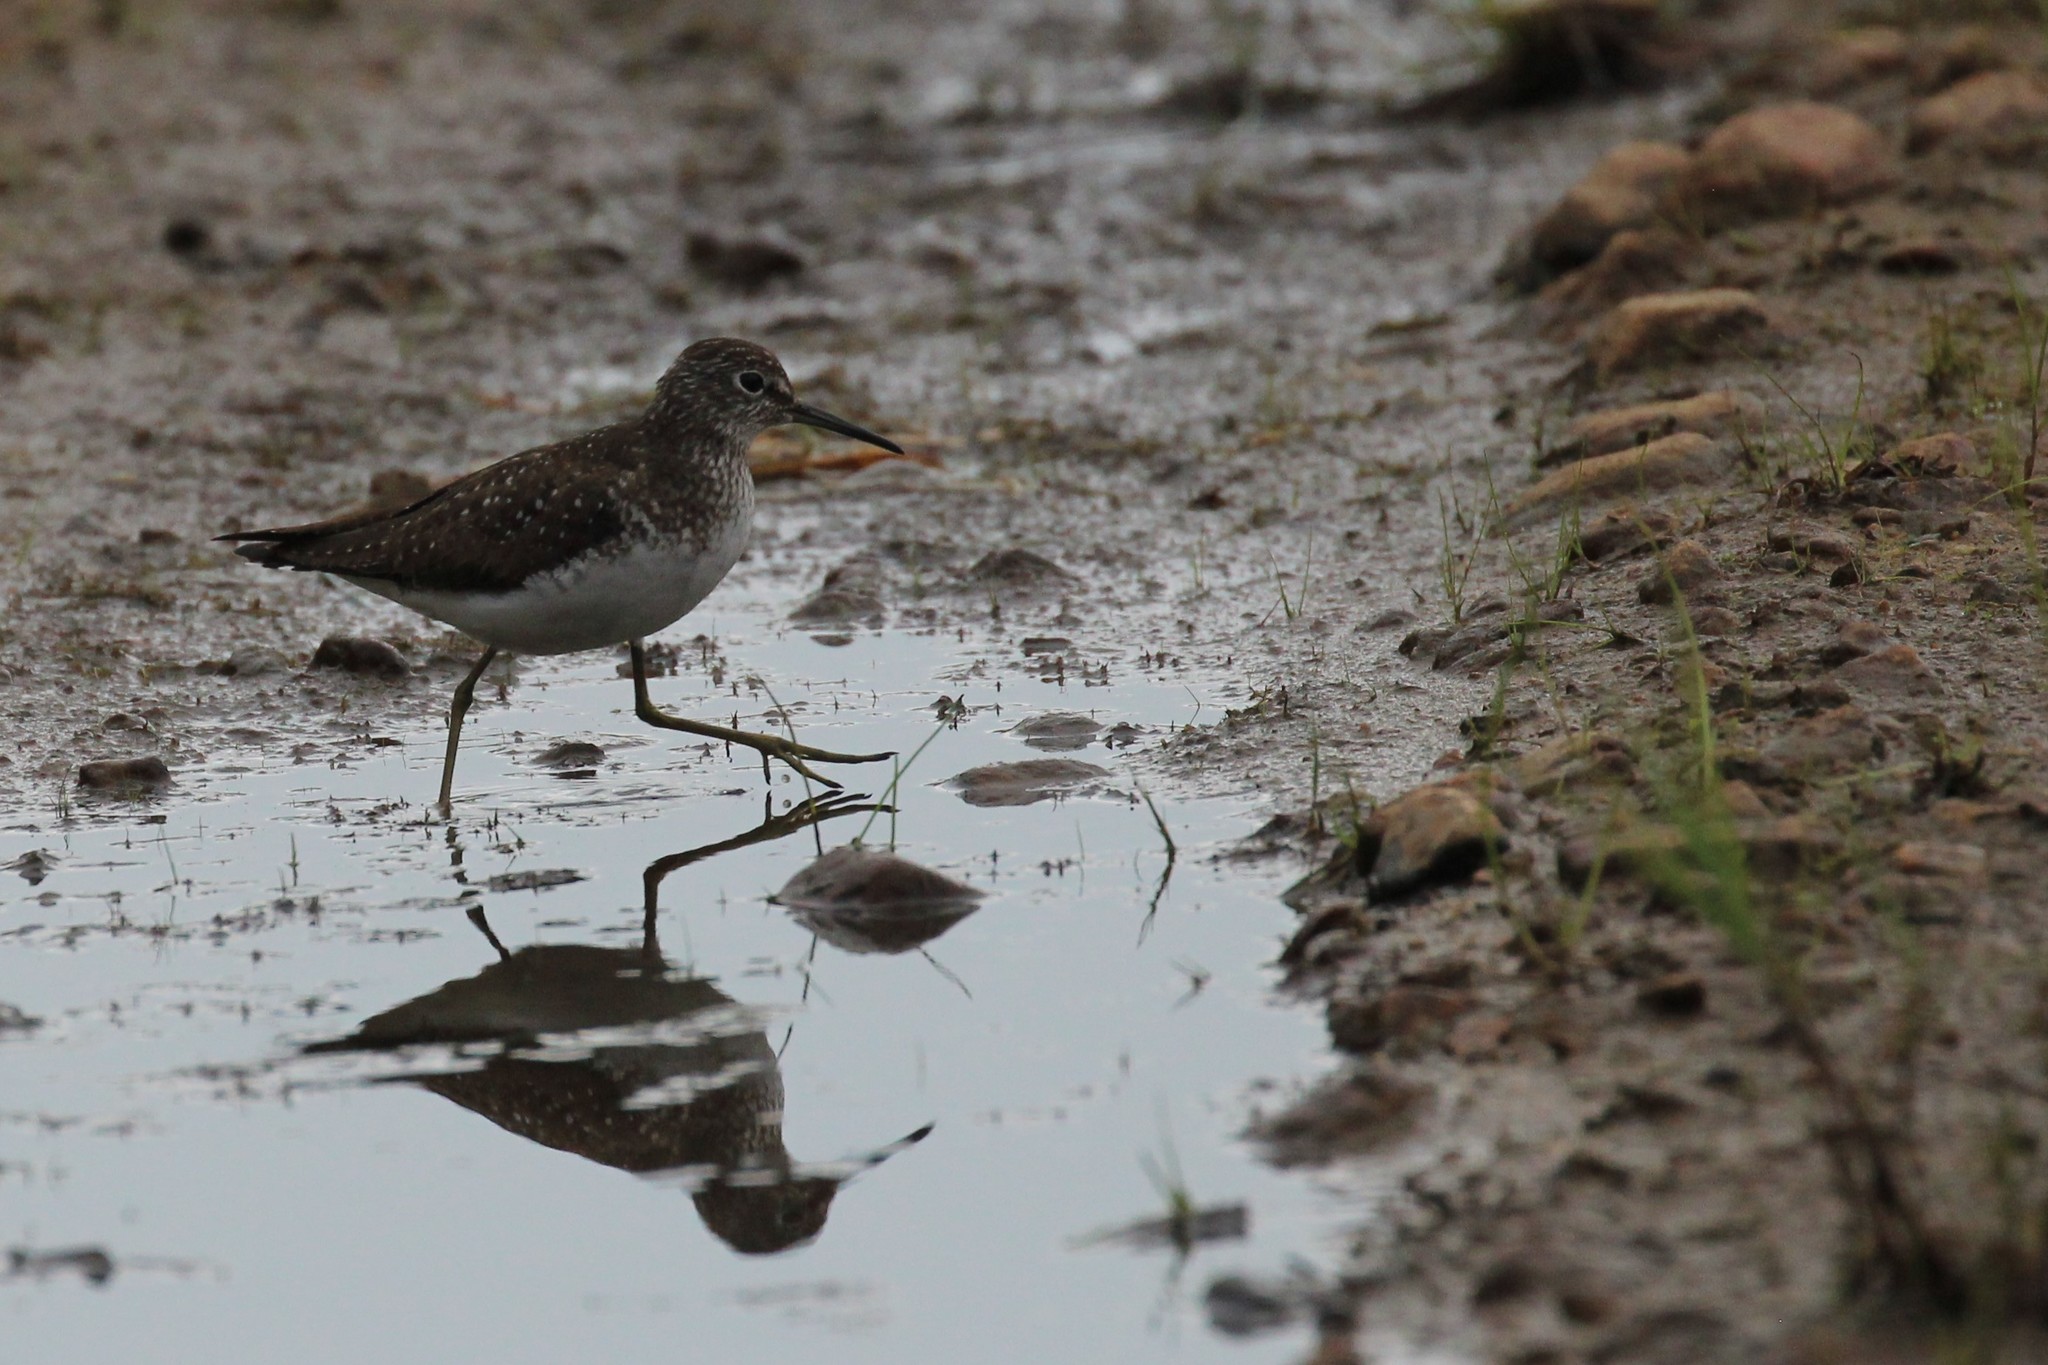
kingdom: Animalia
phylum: Chordata
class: Aves
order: Charadriiformes
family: Scolopacidae
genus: Tringa
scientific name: Tringa solitaria
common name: Solitary sandpiper
